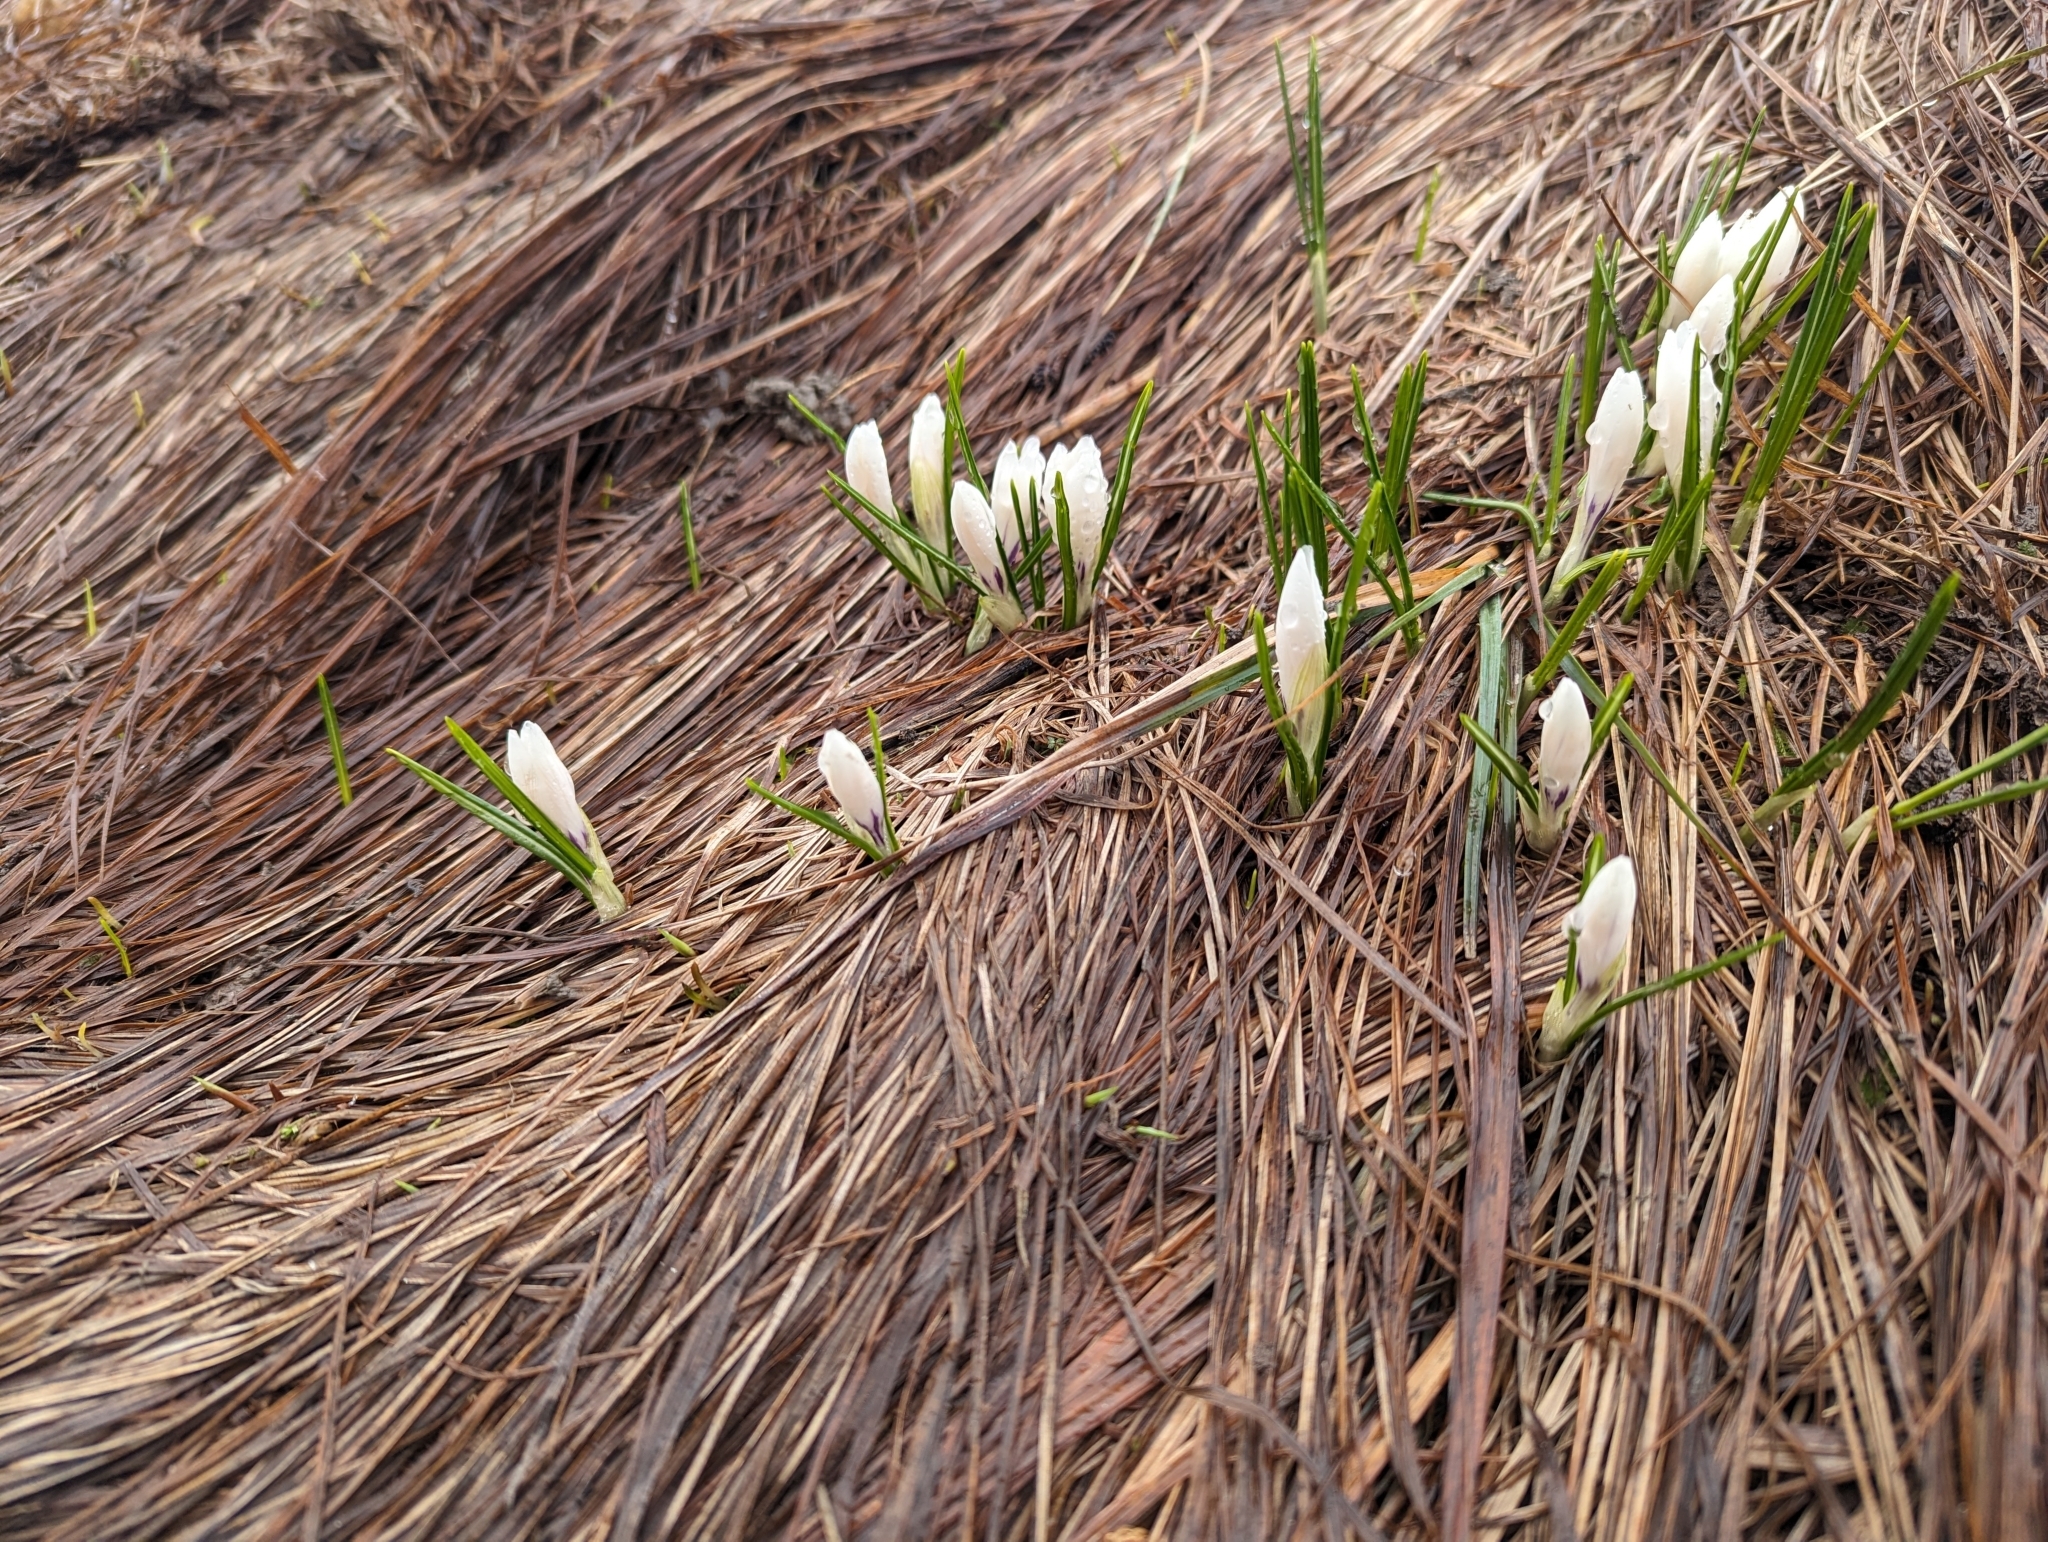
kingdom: Plantae
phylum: Tracheophyta
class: Liliopsida
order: Asparagales
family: Iridaceae
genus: Crocus
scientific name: Crocus vernus
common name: Spring crocus
